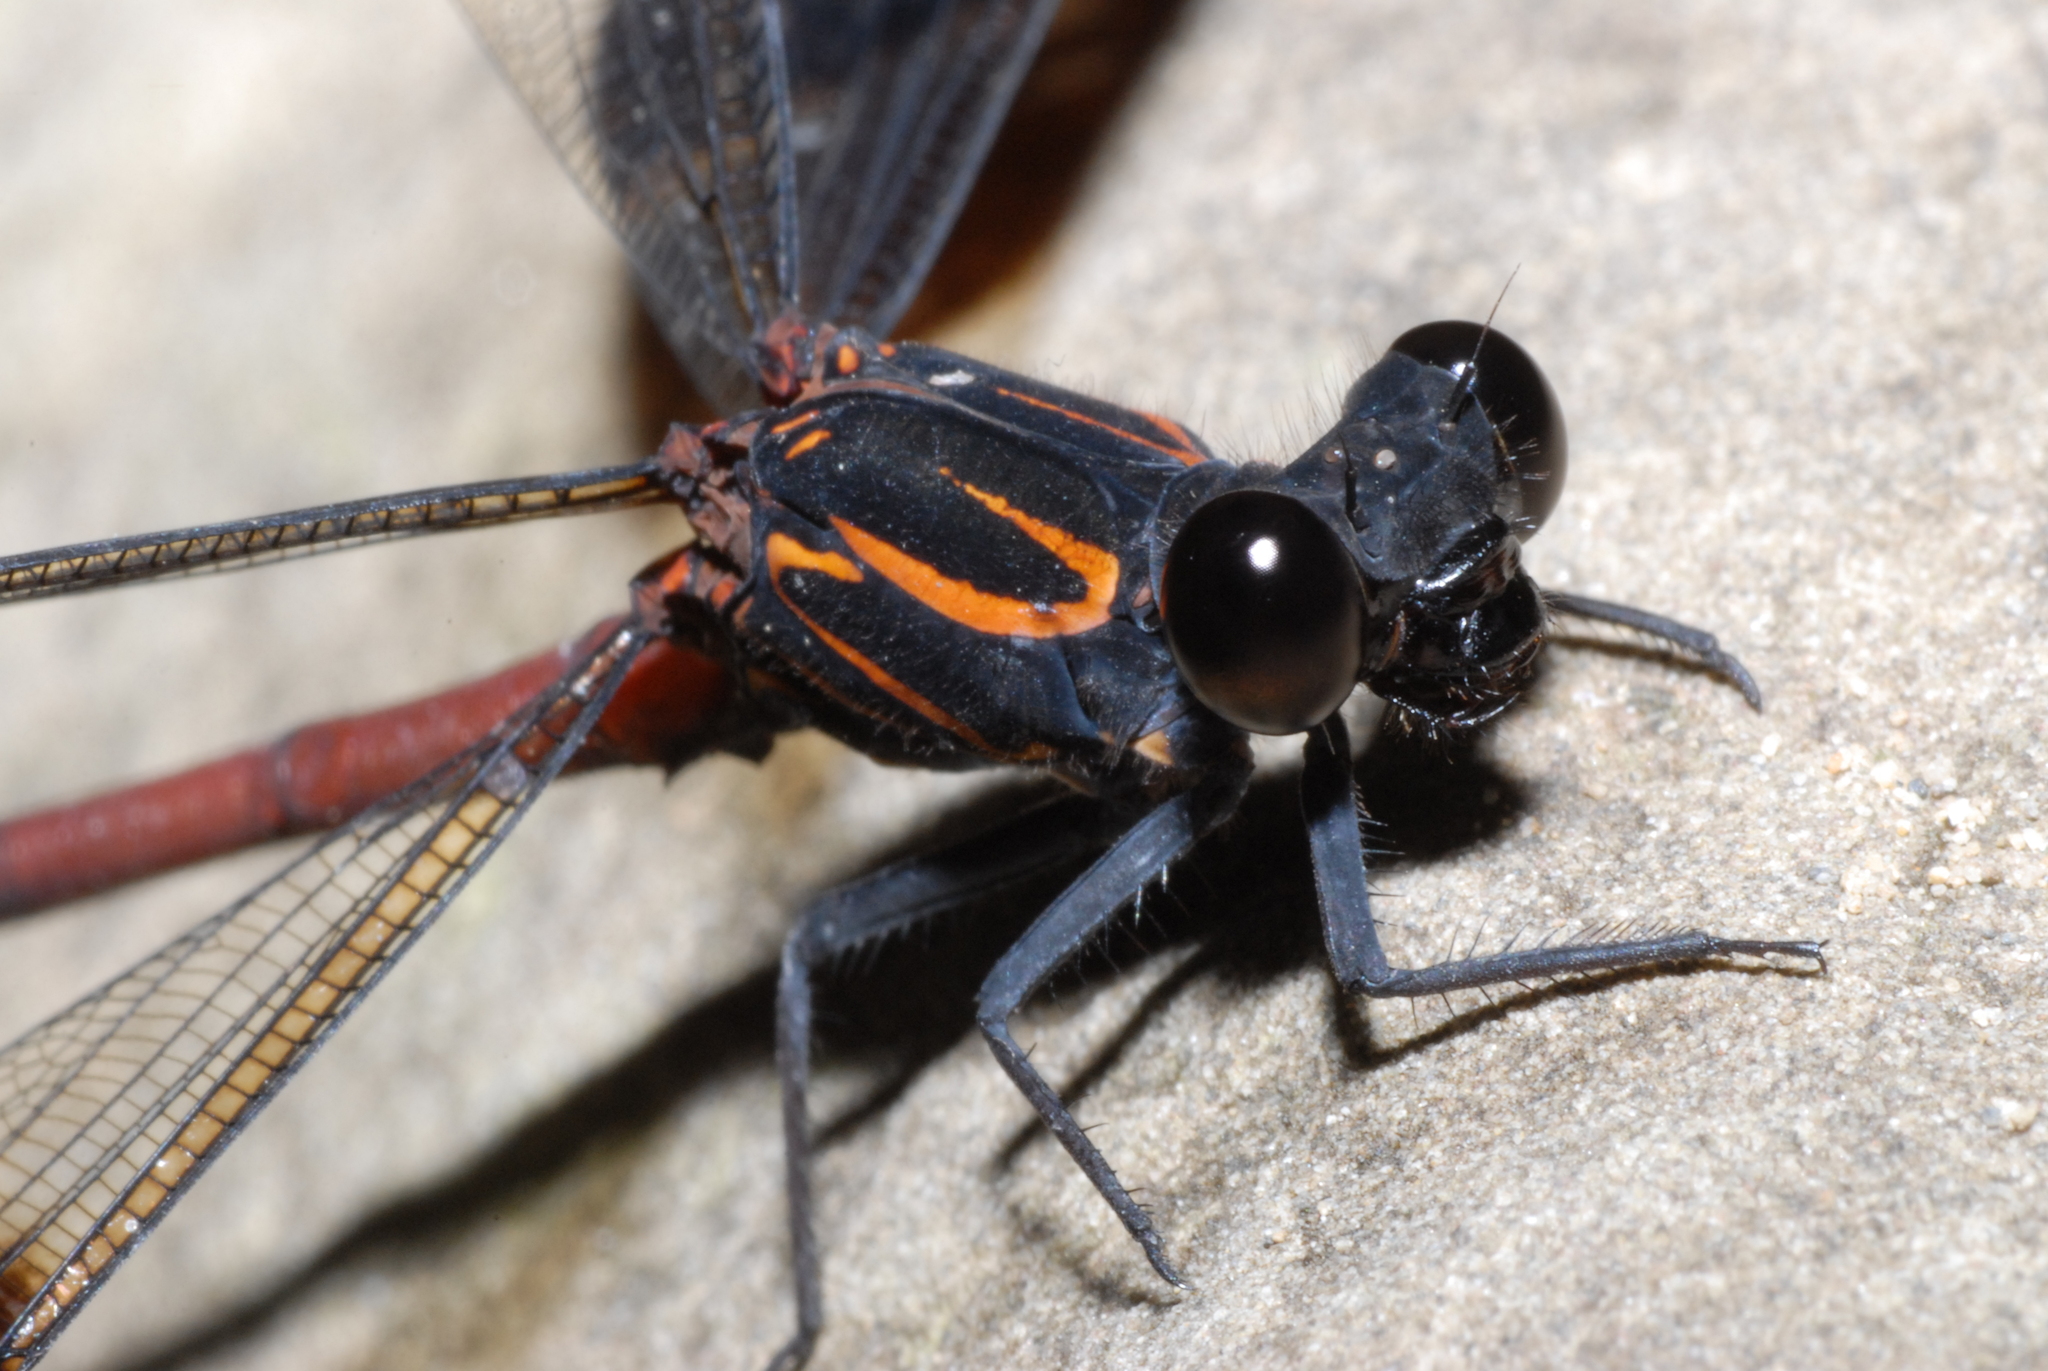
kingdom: Animalia
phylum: Arthropoda
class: Insecta
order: Odonata
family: Euphaeidae
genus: Euphaea
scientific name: Euphaea formosa
